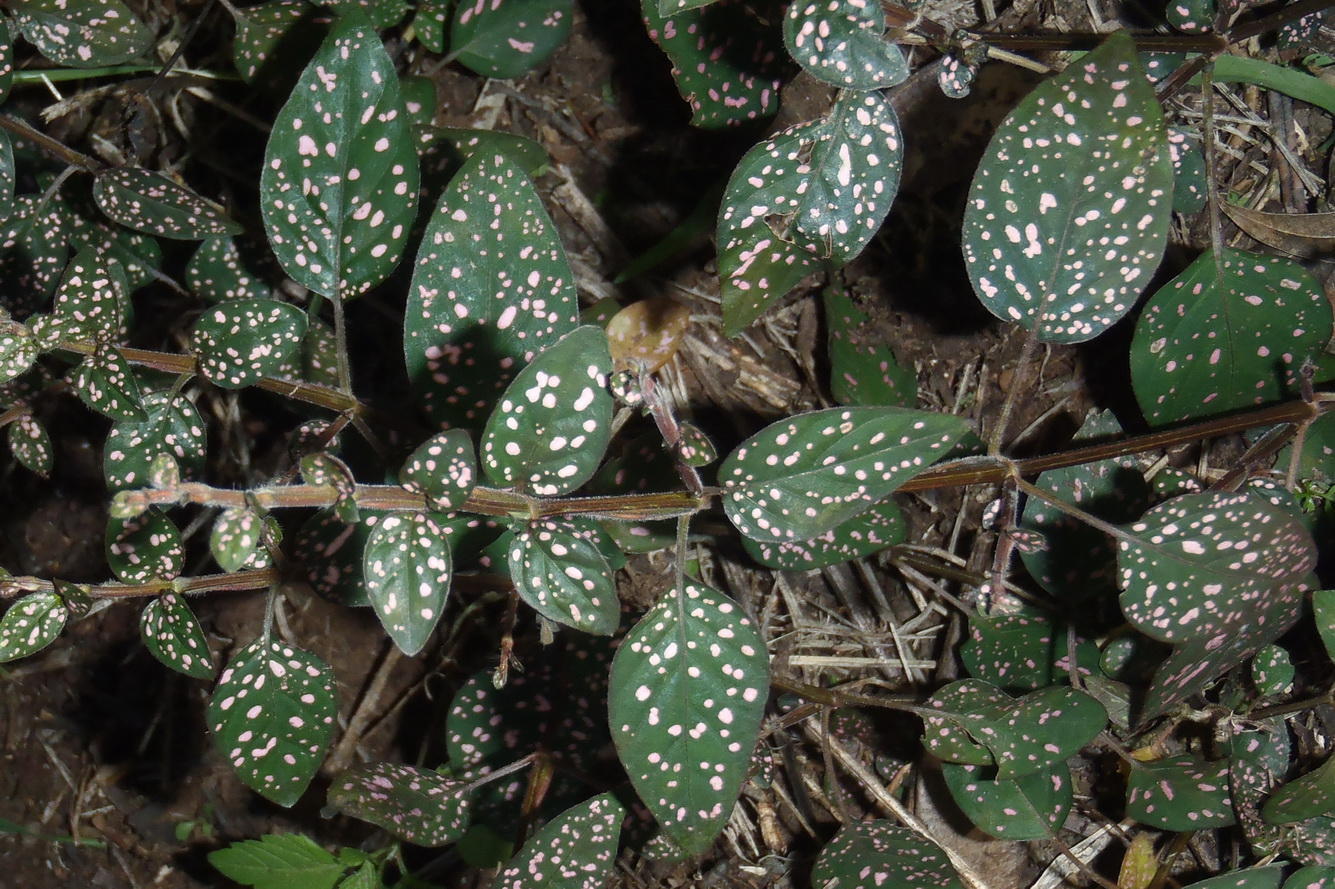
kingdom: Plantae
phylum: Tracheophyta
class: Magnoliopsida
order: Lamiales
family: Acanthaceae
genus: Hypoestes
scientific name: Hypoestes phyllostachya
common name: Polkadot-plant
